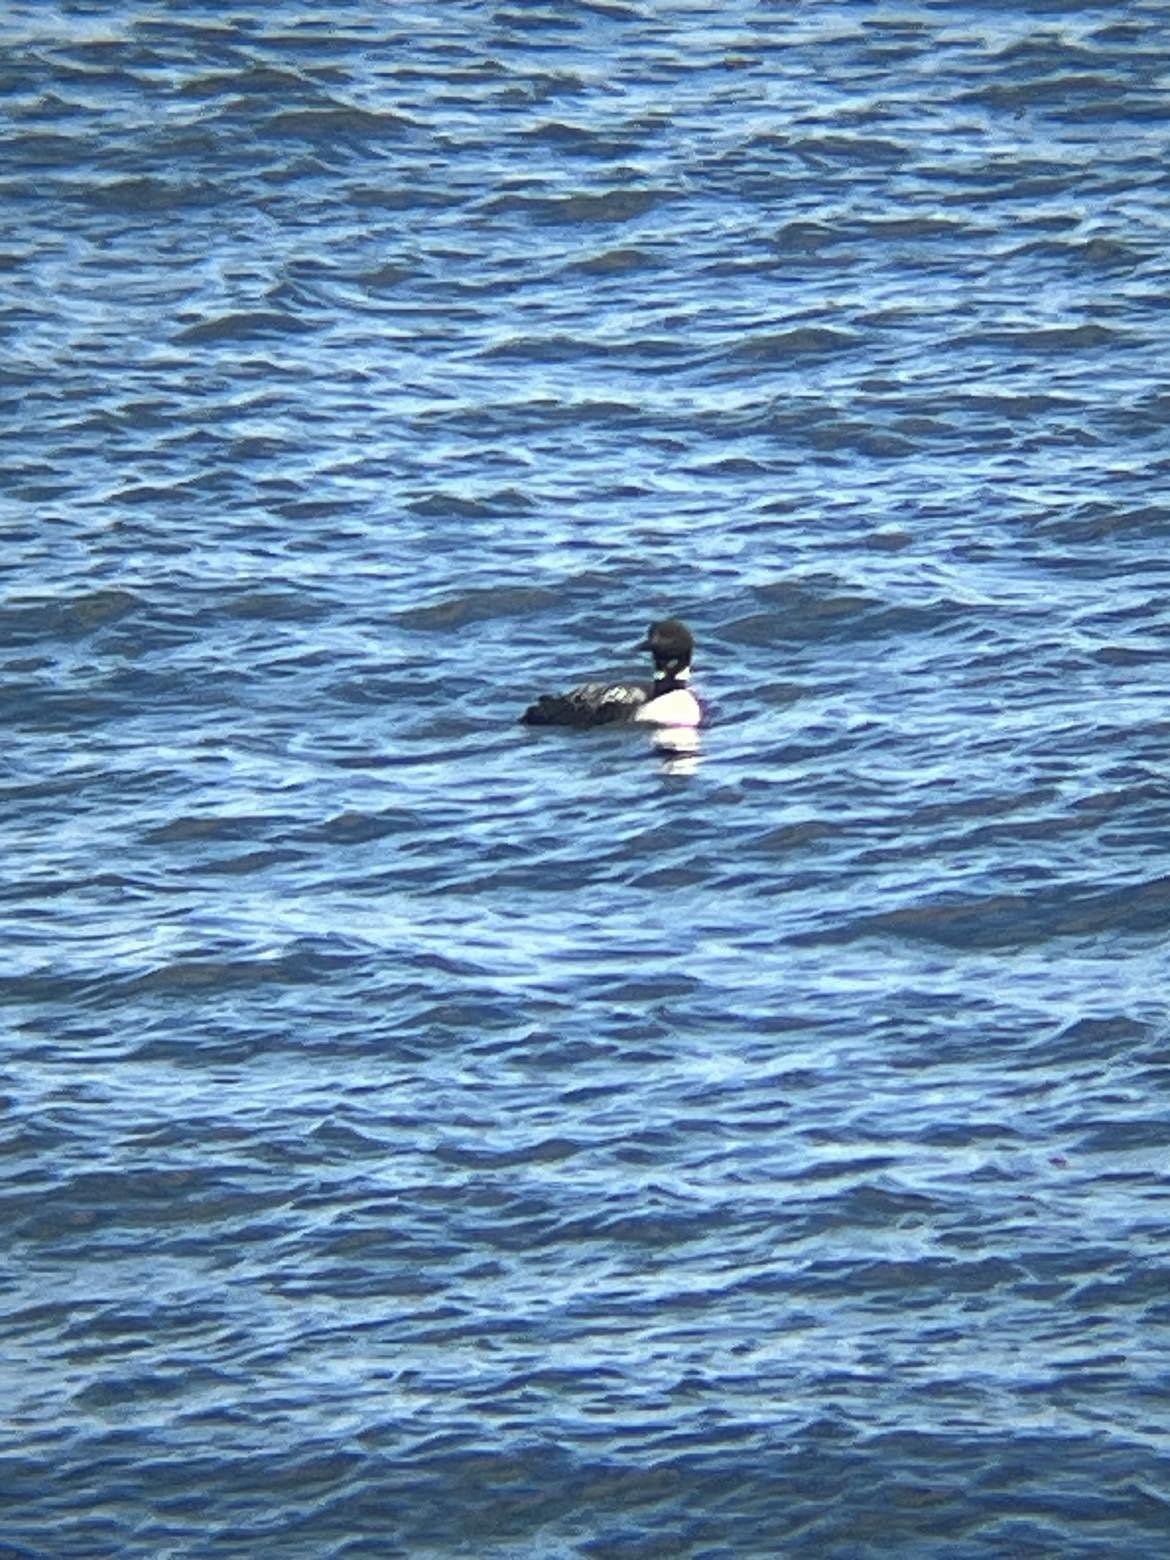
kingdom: Animalia
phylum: Chordata
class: Aves
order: Gaviiformes
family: Gaviidae
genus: Gavia
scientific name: Gavia immer
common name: Common loon
